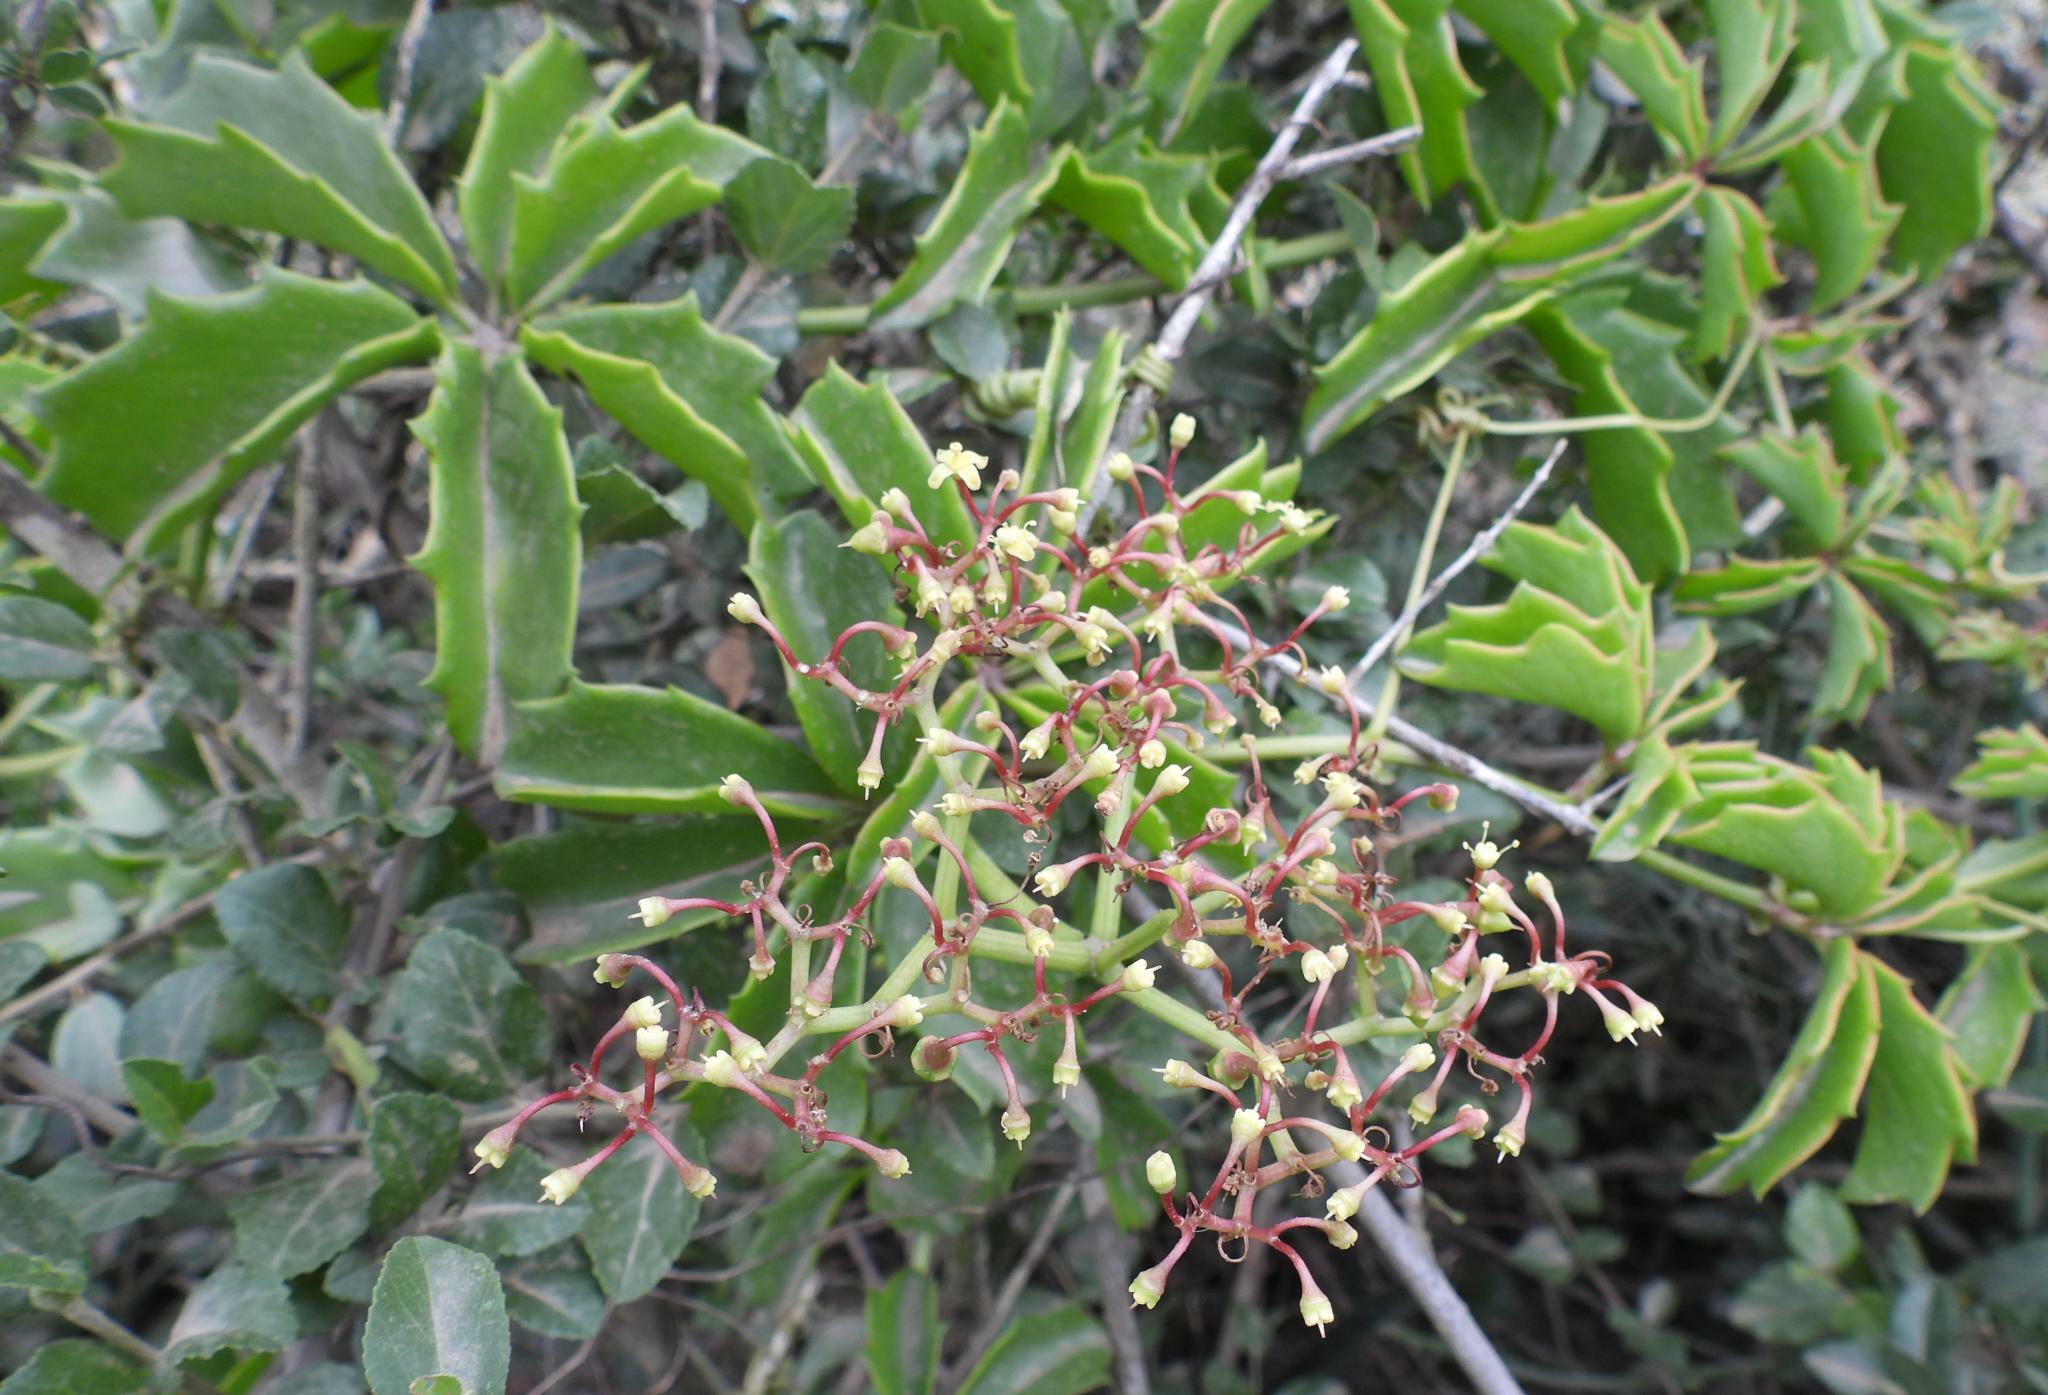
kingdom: Plantae
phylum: Tracheophyta
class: Magnoliopsida
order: Vitales
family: Vitaceae
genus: Cyphostemma
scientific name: Cyphostemma quinatum
